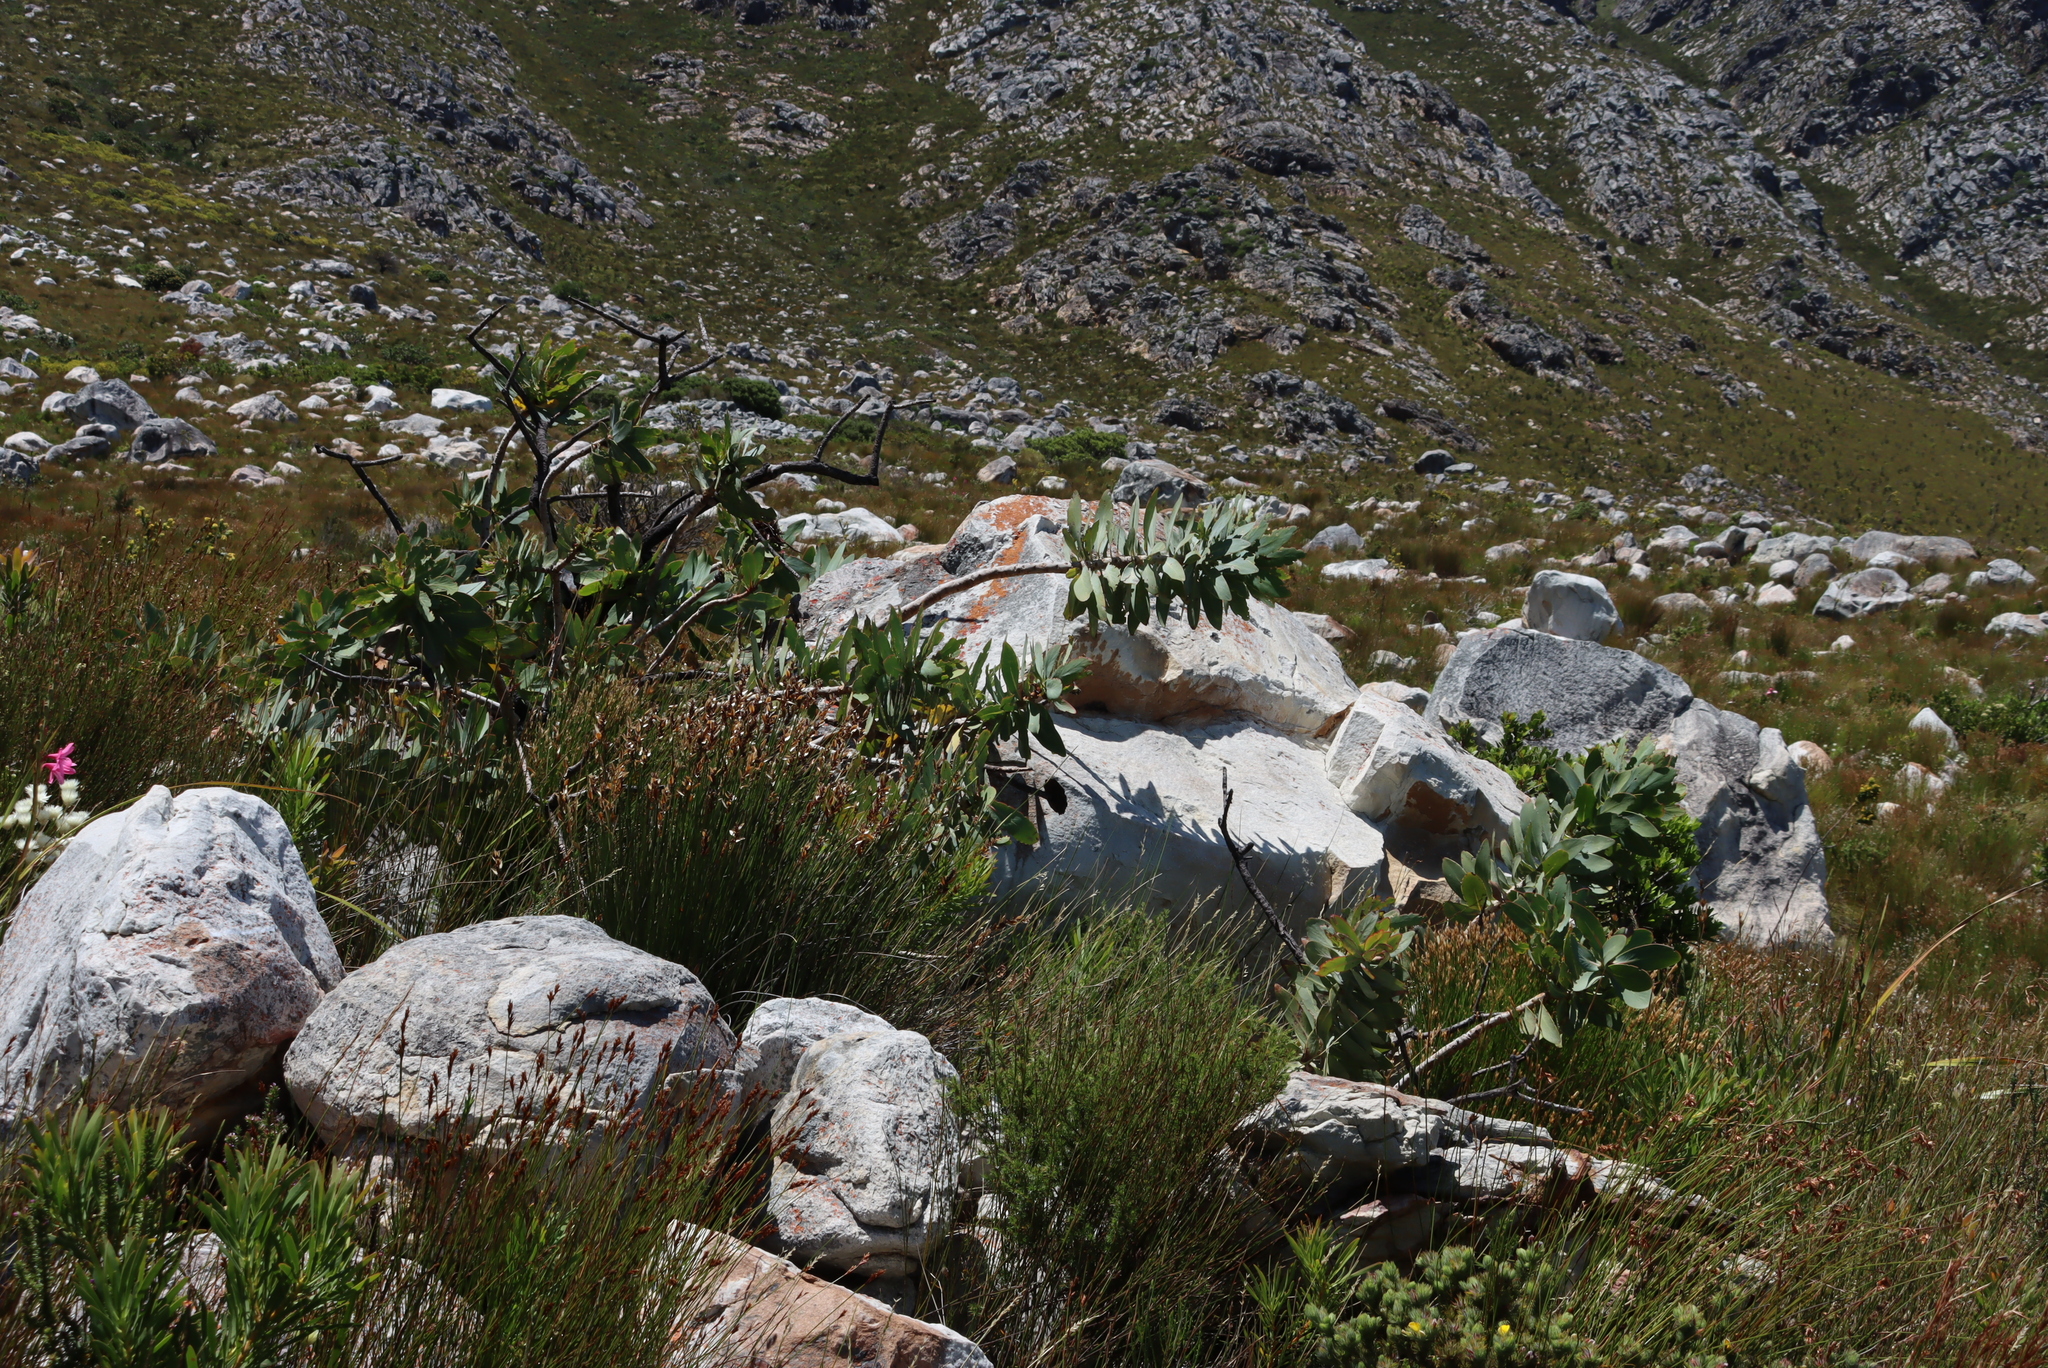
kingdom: Plantae
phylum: Tracheophyta
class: Magnoliopsida
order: Proteales
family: Proteaceae
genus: Protea
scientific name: Protea nitida
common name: Tree protea
